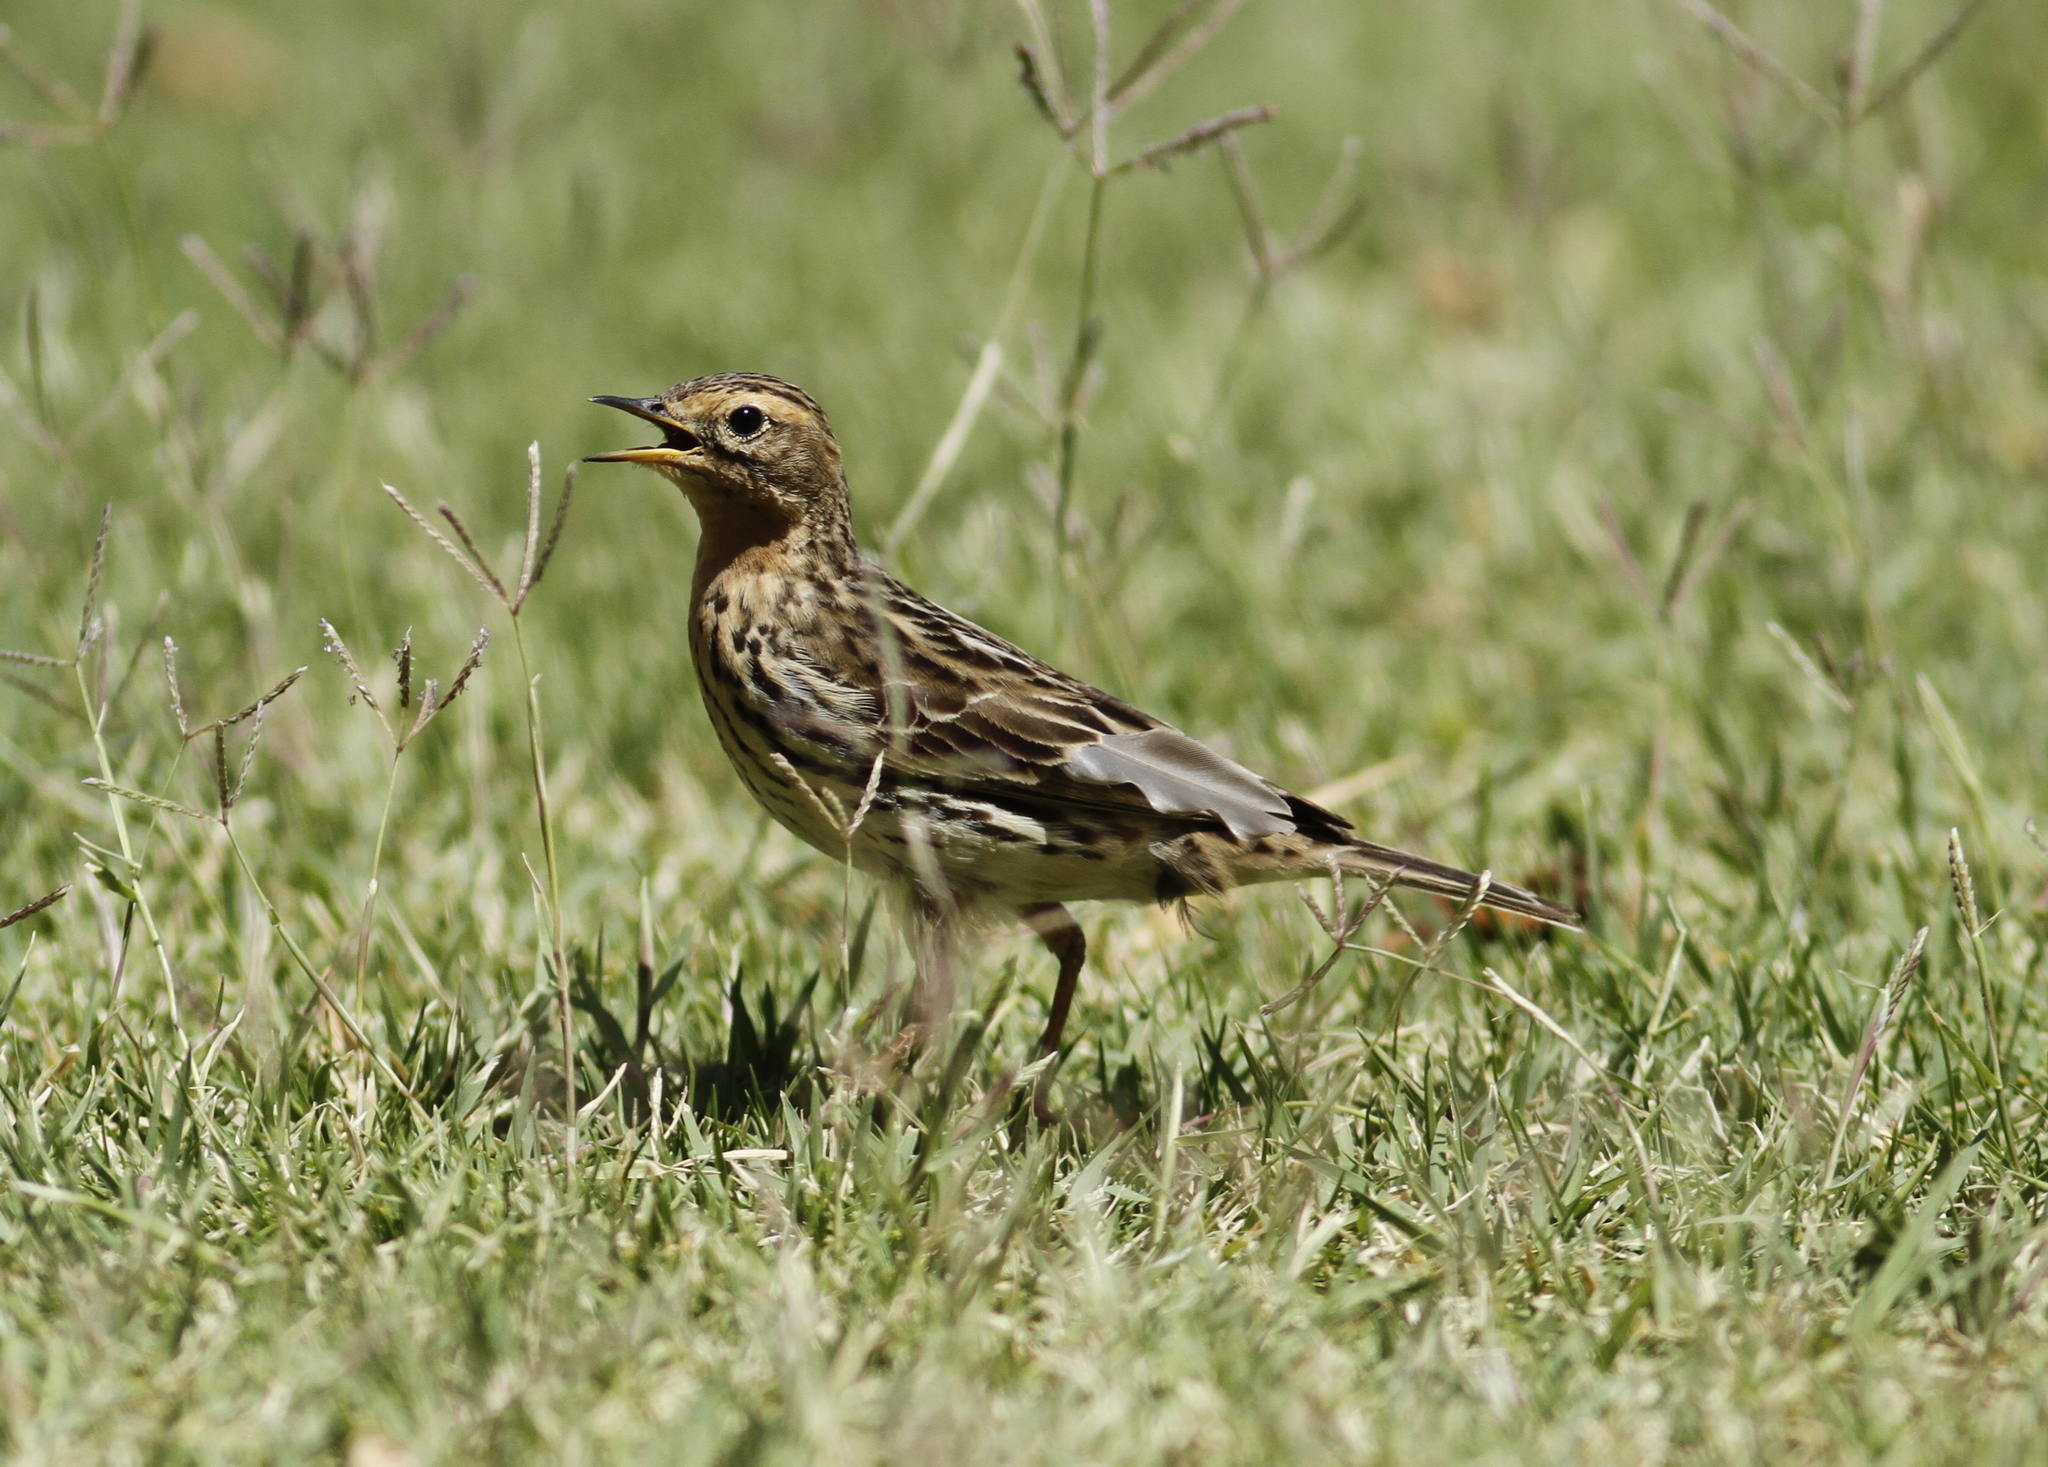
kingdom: Animalia
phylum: Chordata
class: Aves
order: Passeriformes
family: Motacillidae
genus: Anthus
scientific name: Anthus cervinus
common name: Red-throated pipit
